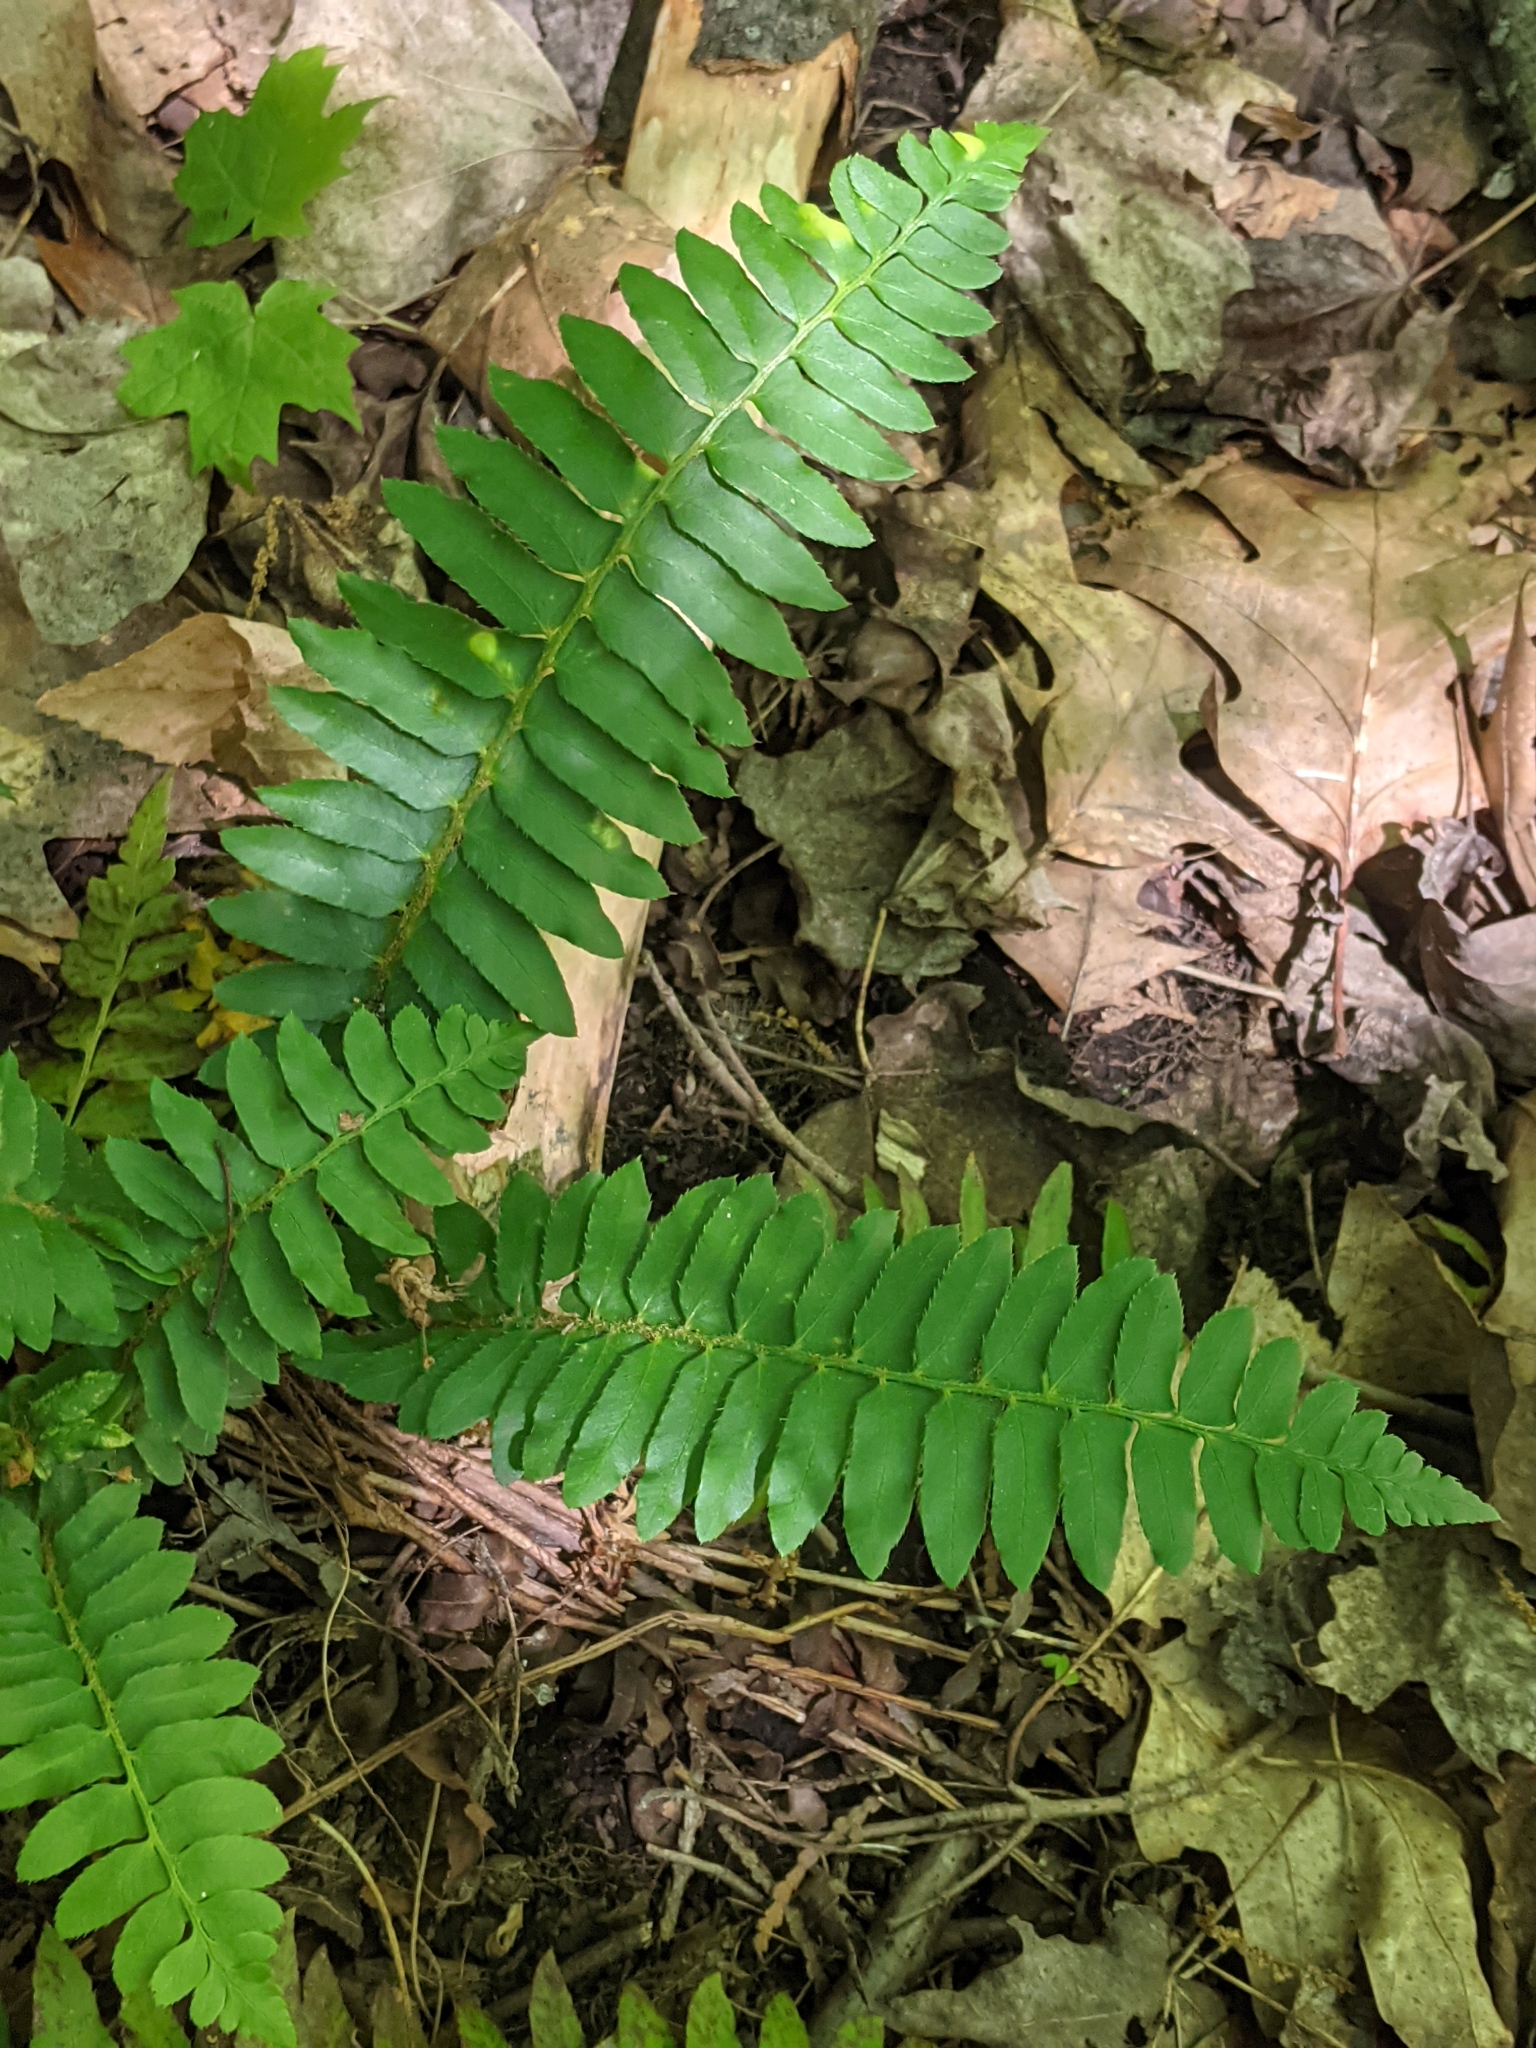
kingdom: Plantae
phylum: Tracheophyta
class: Polypodiopsida
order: Polypodiales
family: Dryopteridaceae
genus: Polystichum
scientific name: Polystichum acrostichoides
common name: Christmas fern
